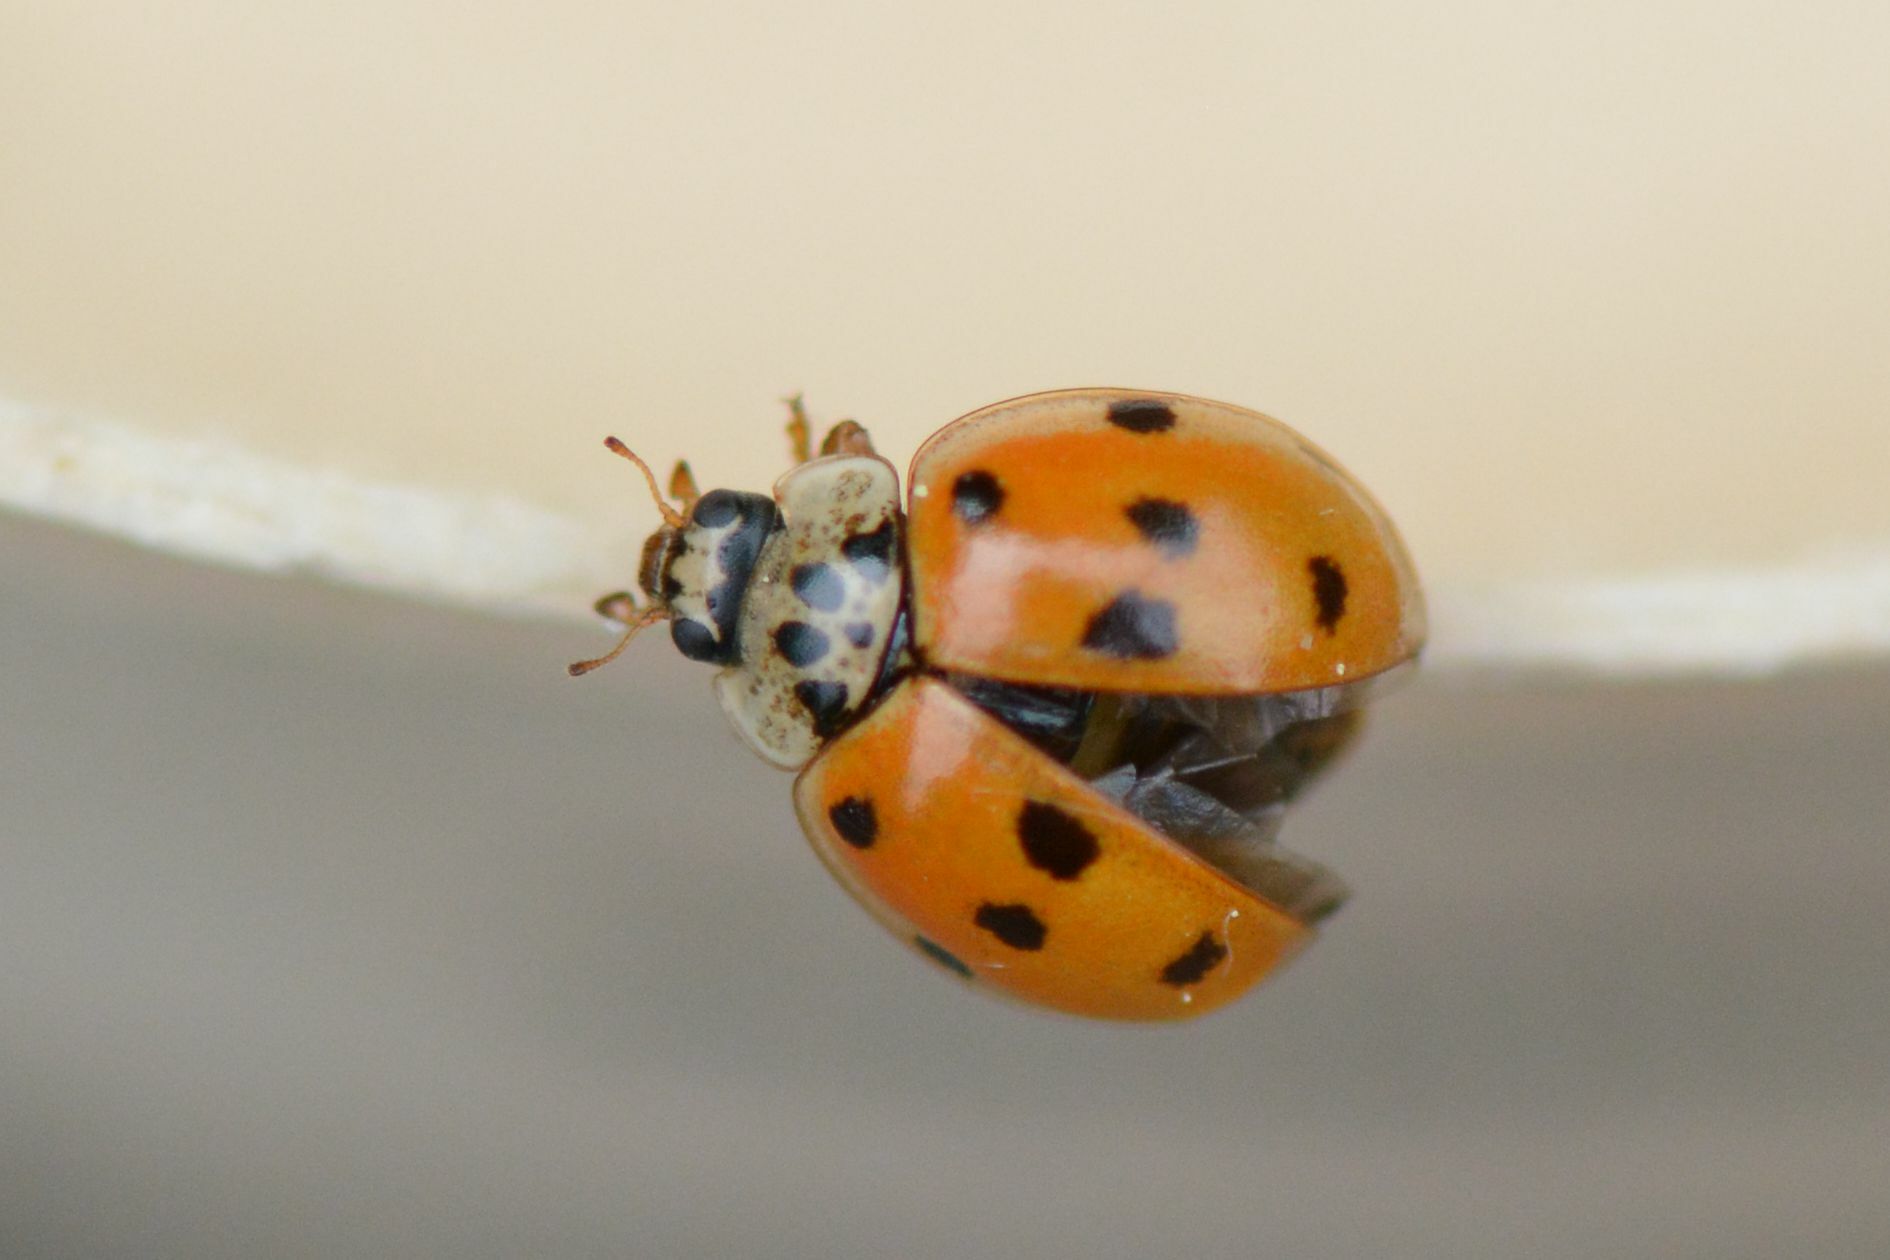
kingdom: Animalia
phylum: Arthropoda
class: Insecta
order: Coleoptera
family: Coccinellidae
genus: Adalia
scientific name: Adalia decempunctata
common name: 10-spot ladybird
